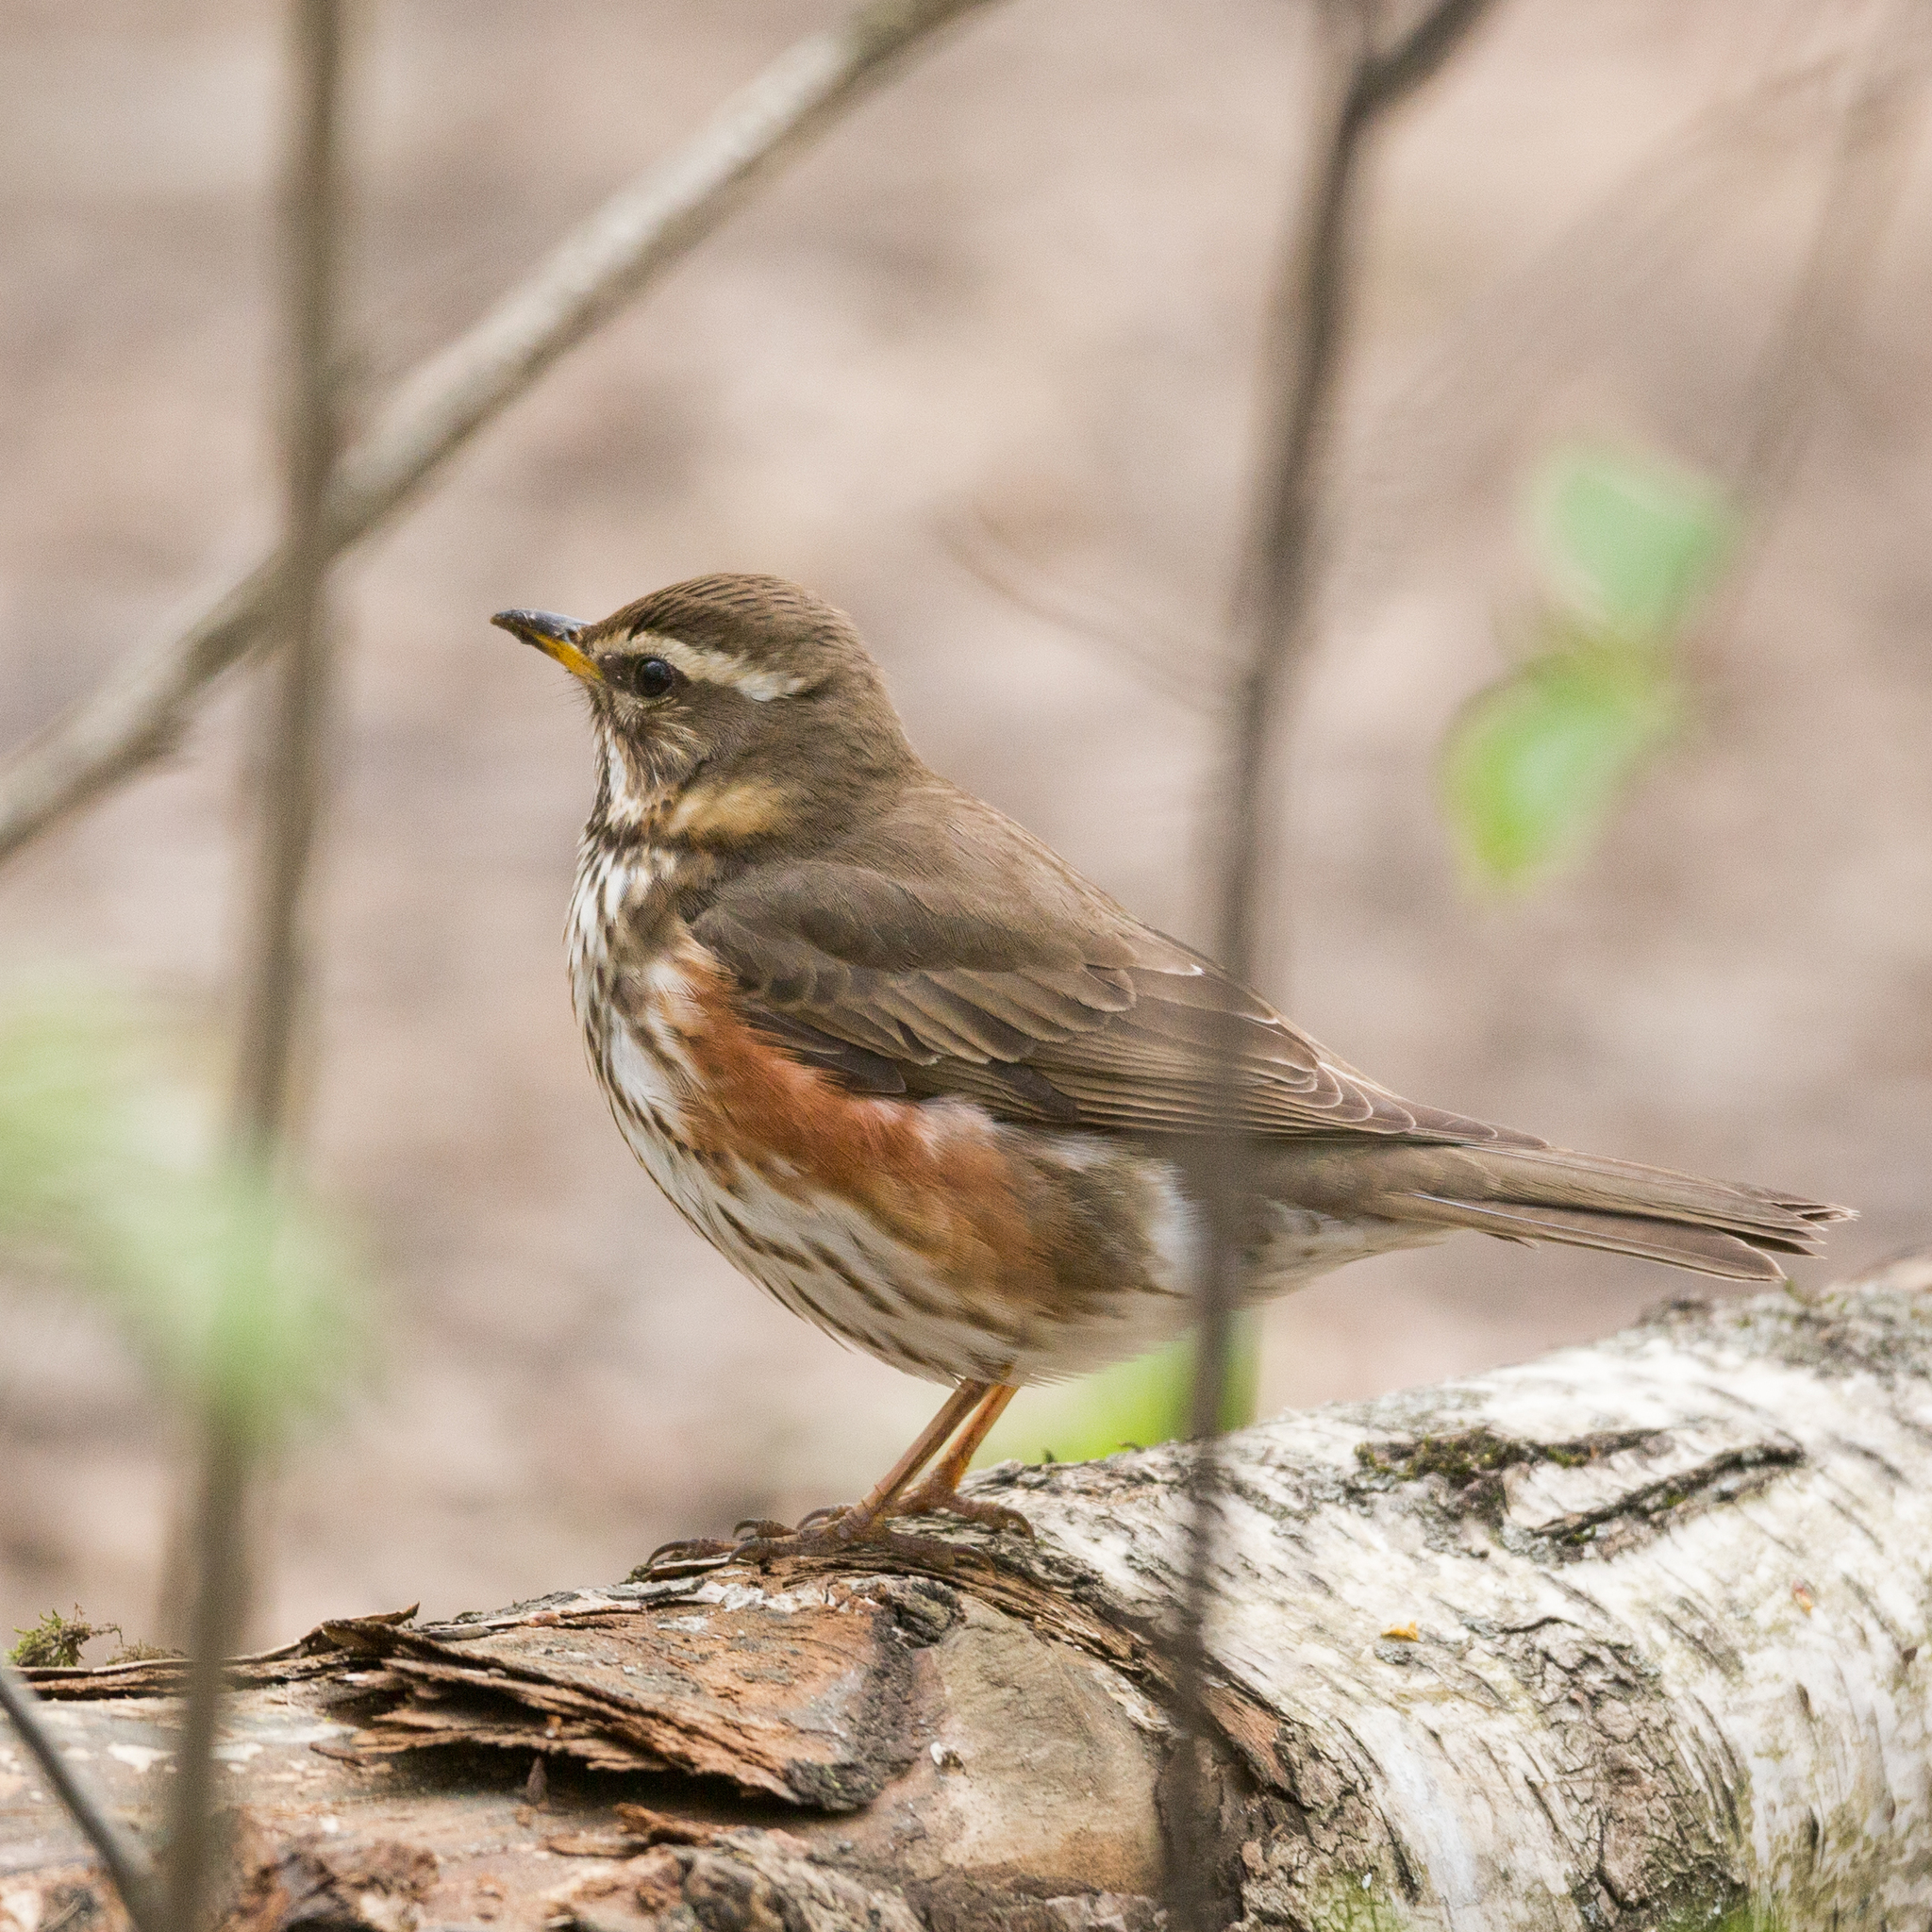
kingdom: Animalia
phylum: Chordata
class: Aves
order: Passeriformes
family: Turdidae
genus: Turdus
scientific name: Turdus iliacus
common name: Redwing
